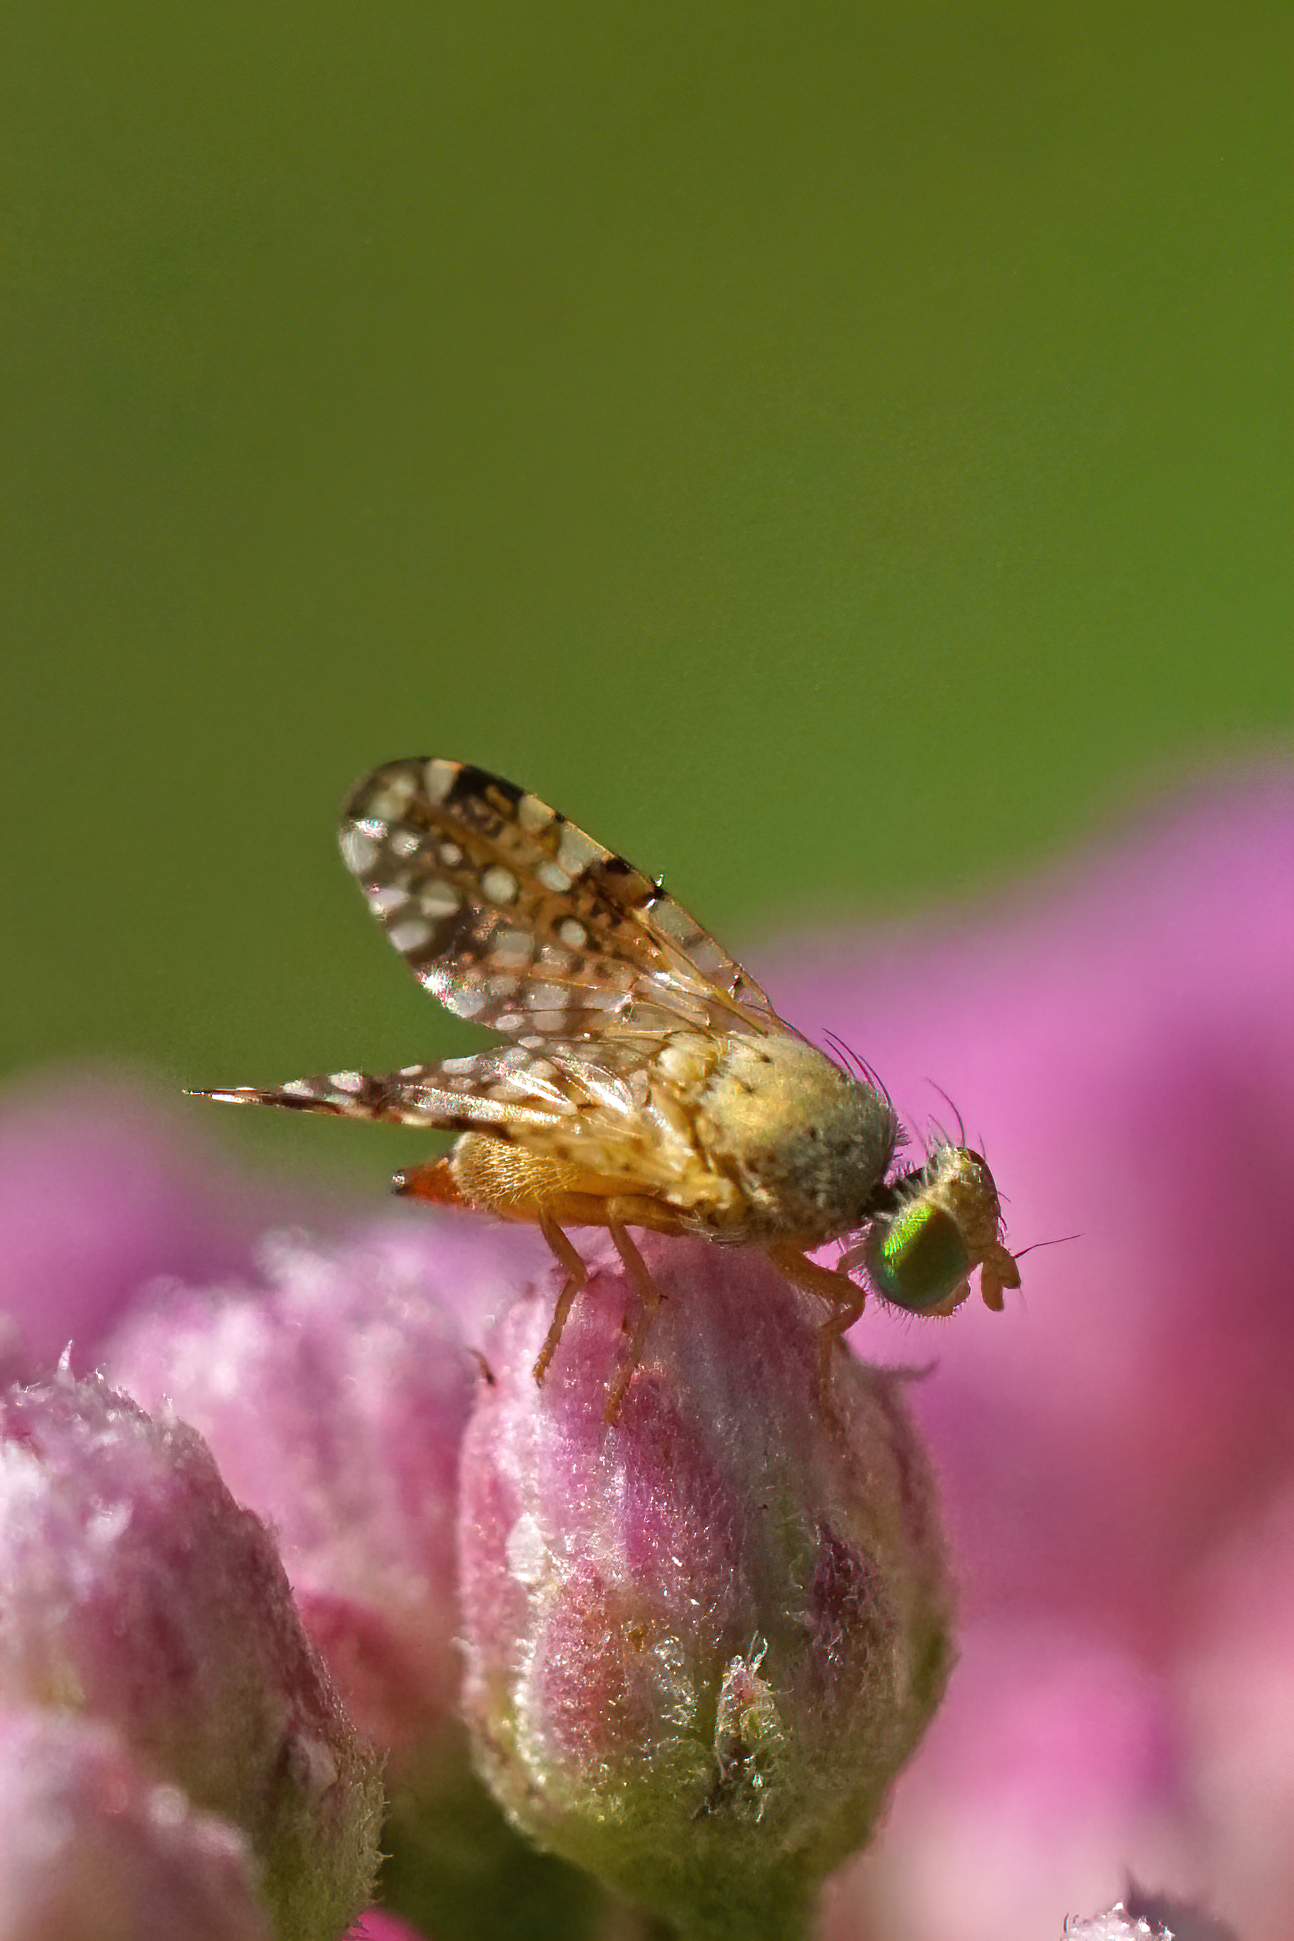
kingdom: Animalia
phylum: Arthropoda
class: Insecta
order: Diptera
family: Tephritidae
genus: Acinia
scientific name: Acinia picturata
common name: Sourbush seed fly
